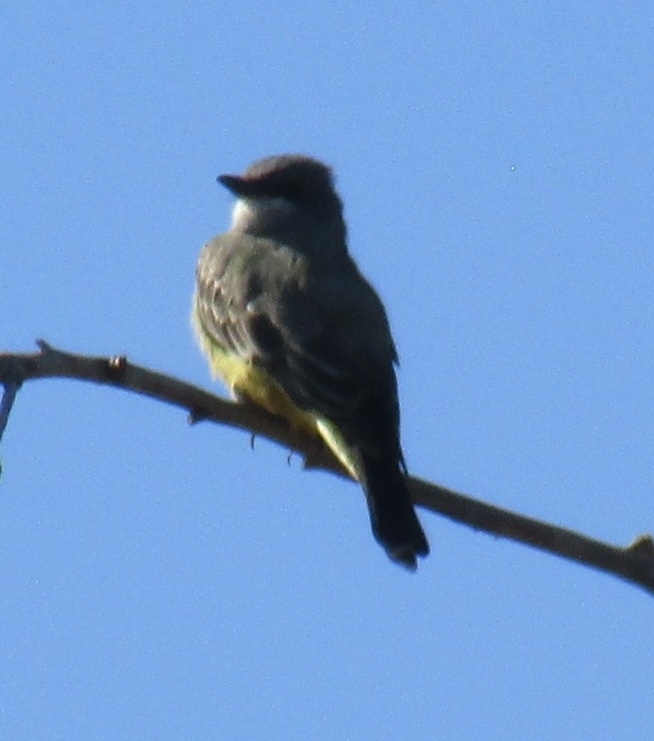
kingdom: Animalia
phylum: Chordata
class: Aves
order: Passeriformes
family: Tyrannidae
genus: Tyrannus
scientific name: Tyrannus vociferans
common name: Cassin's kingbird
